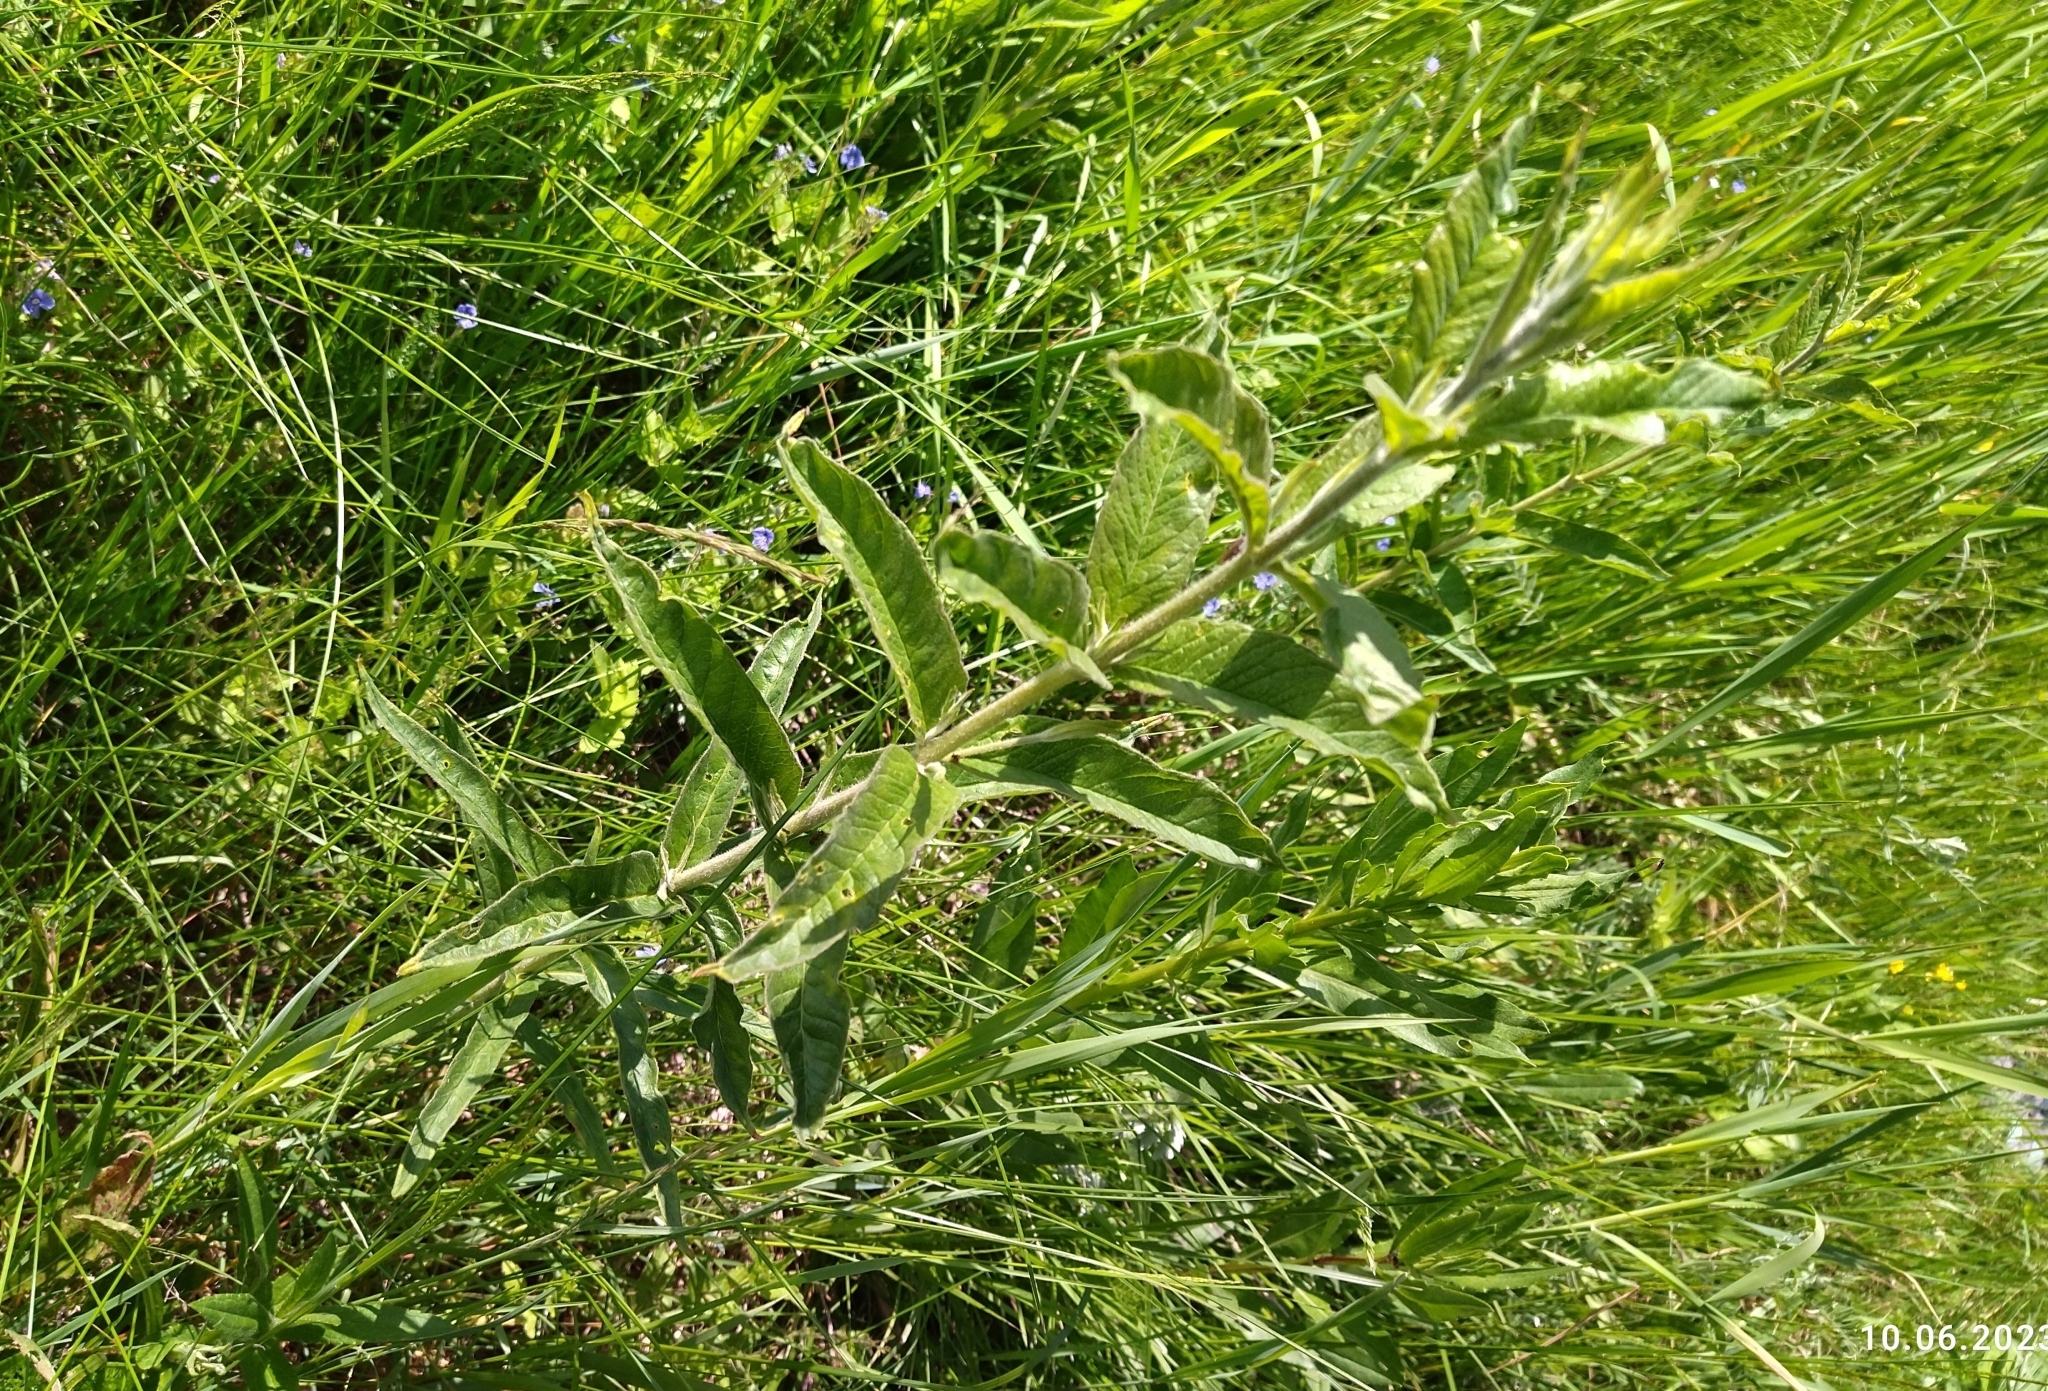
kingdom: Plantae
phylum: Tracheophyta
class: Magnoliopsida
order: Ericales
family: Primulaceae
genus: Lysimachia
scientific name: Lysimachia vulgaris
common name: Yellow loosestrife
